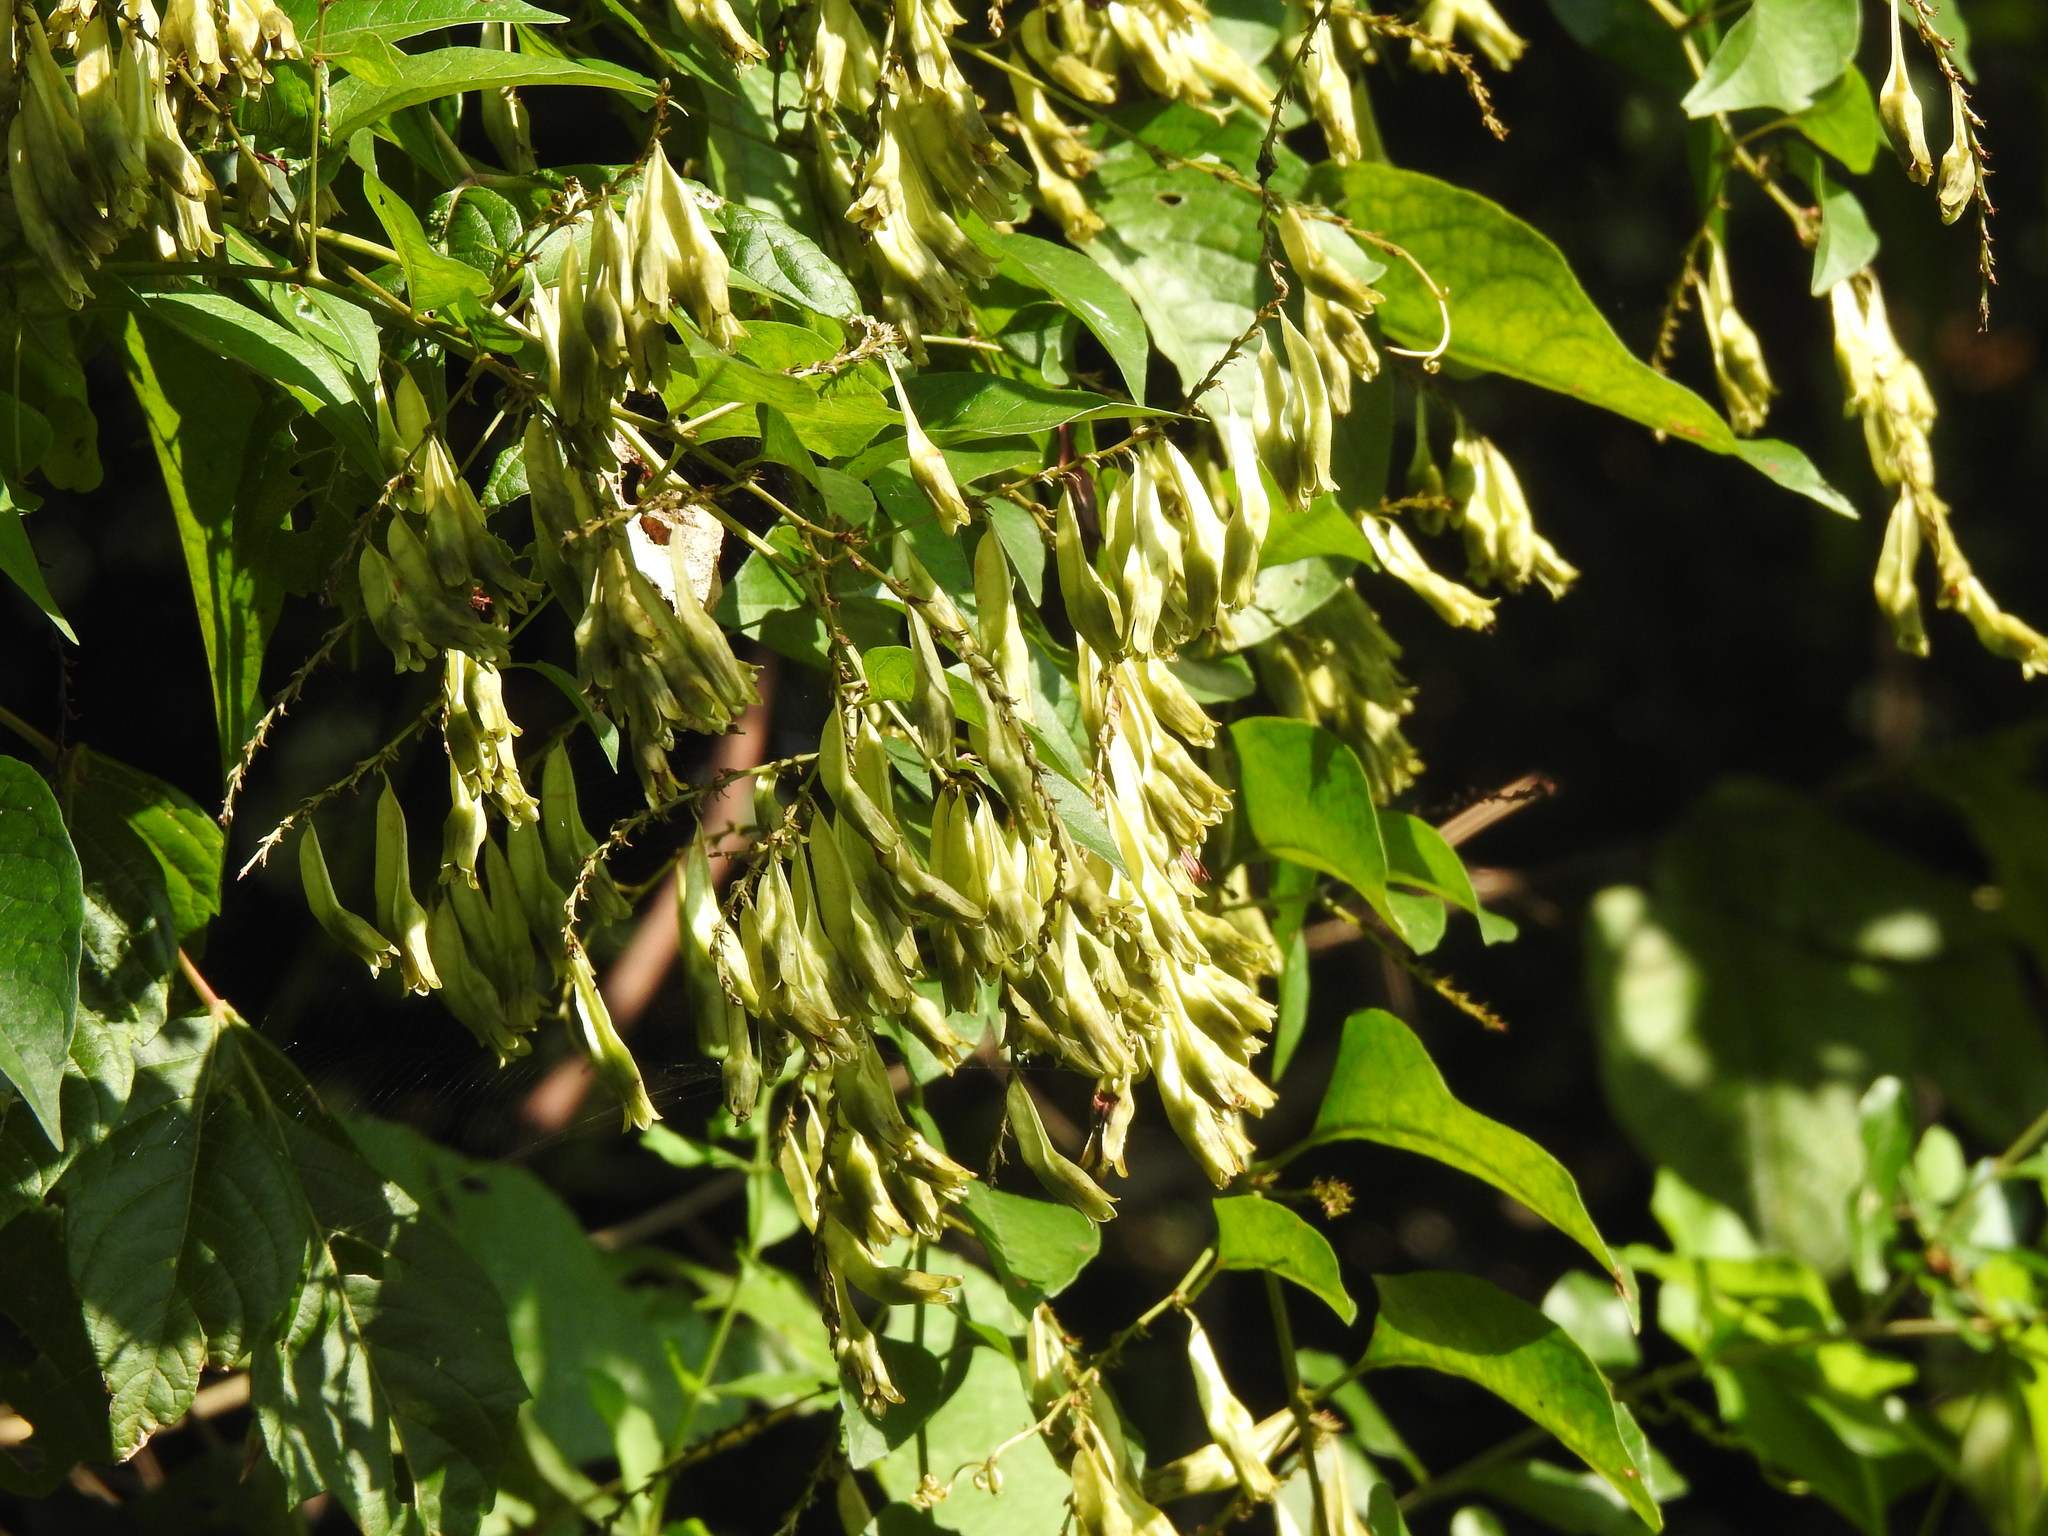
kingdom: Plantae
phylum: Tracheophyta
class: Magnoliopsida
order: Caryophyllales
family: Polygonaceae
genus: Brunnichia
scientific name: Brunnichia ovata
